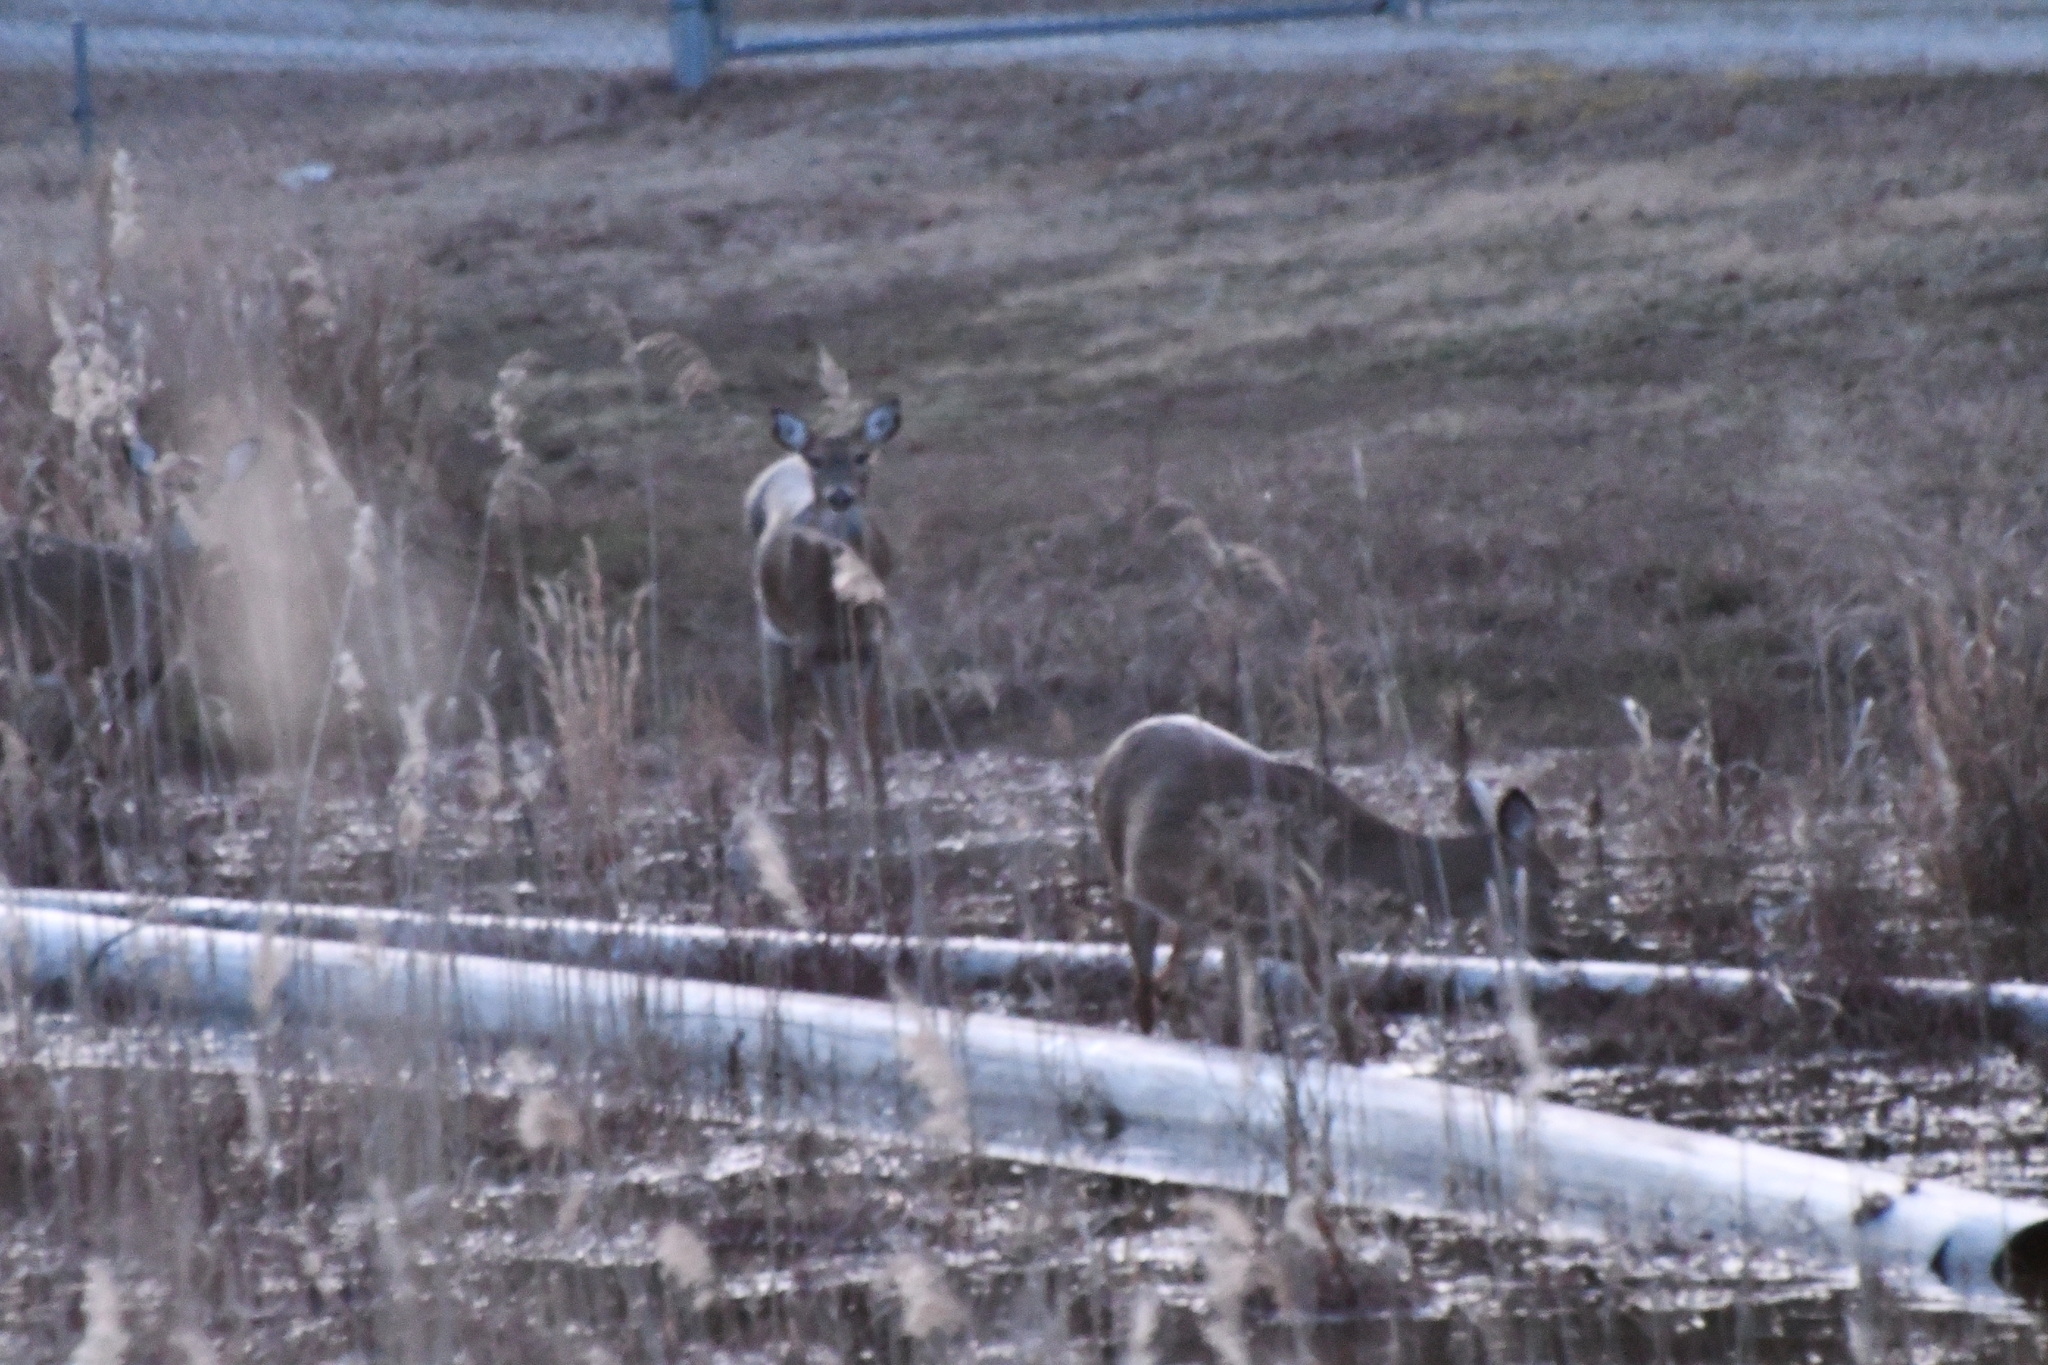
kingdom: Animalia
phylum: Chordata
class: Mammalia
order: Artiodactyla
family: Cervidae
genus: Odocoileus
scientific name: Odocoileus virginianus
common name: White-tailed deer
